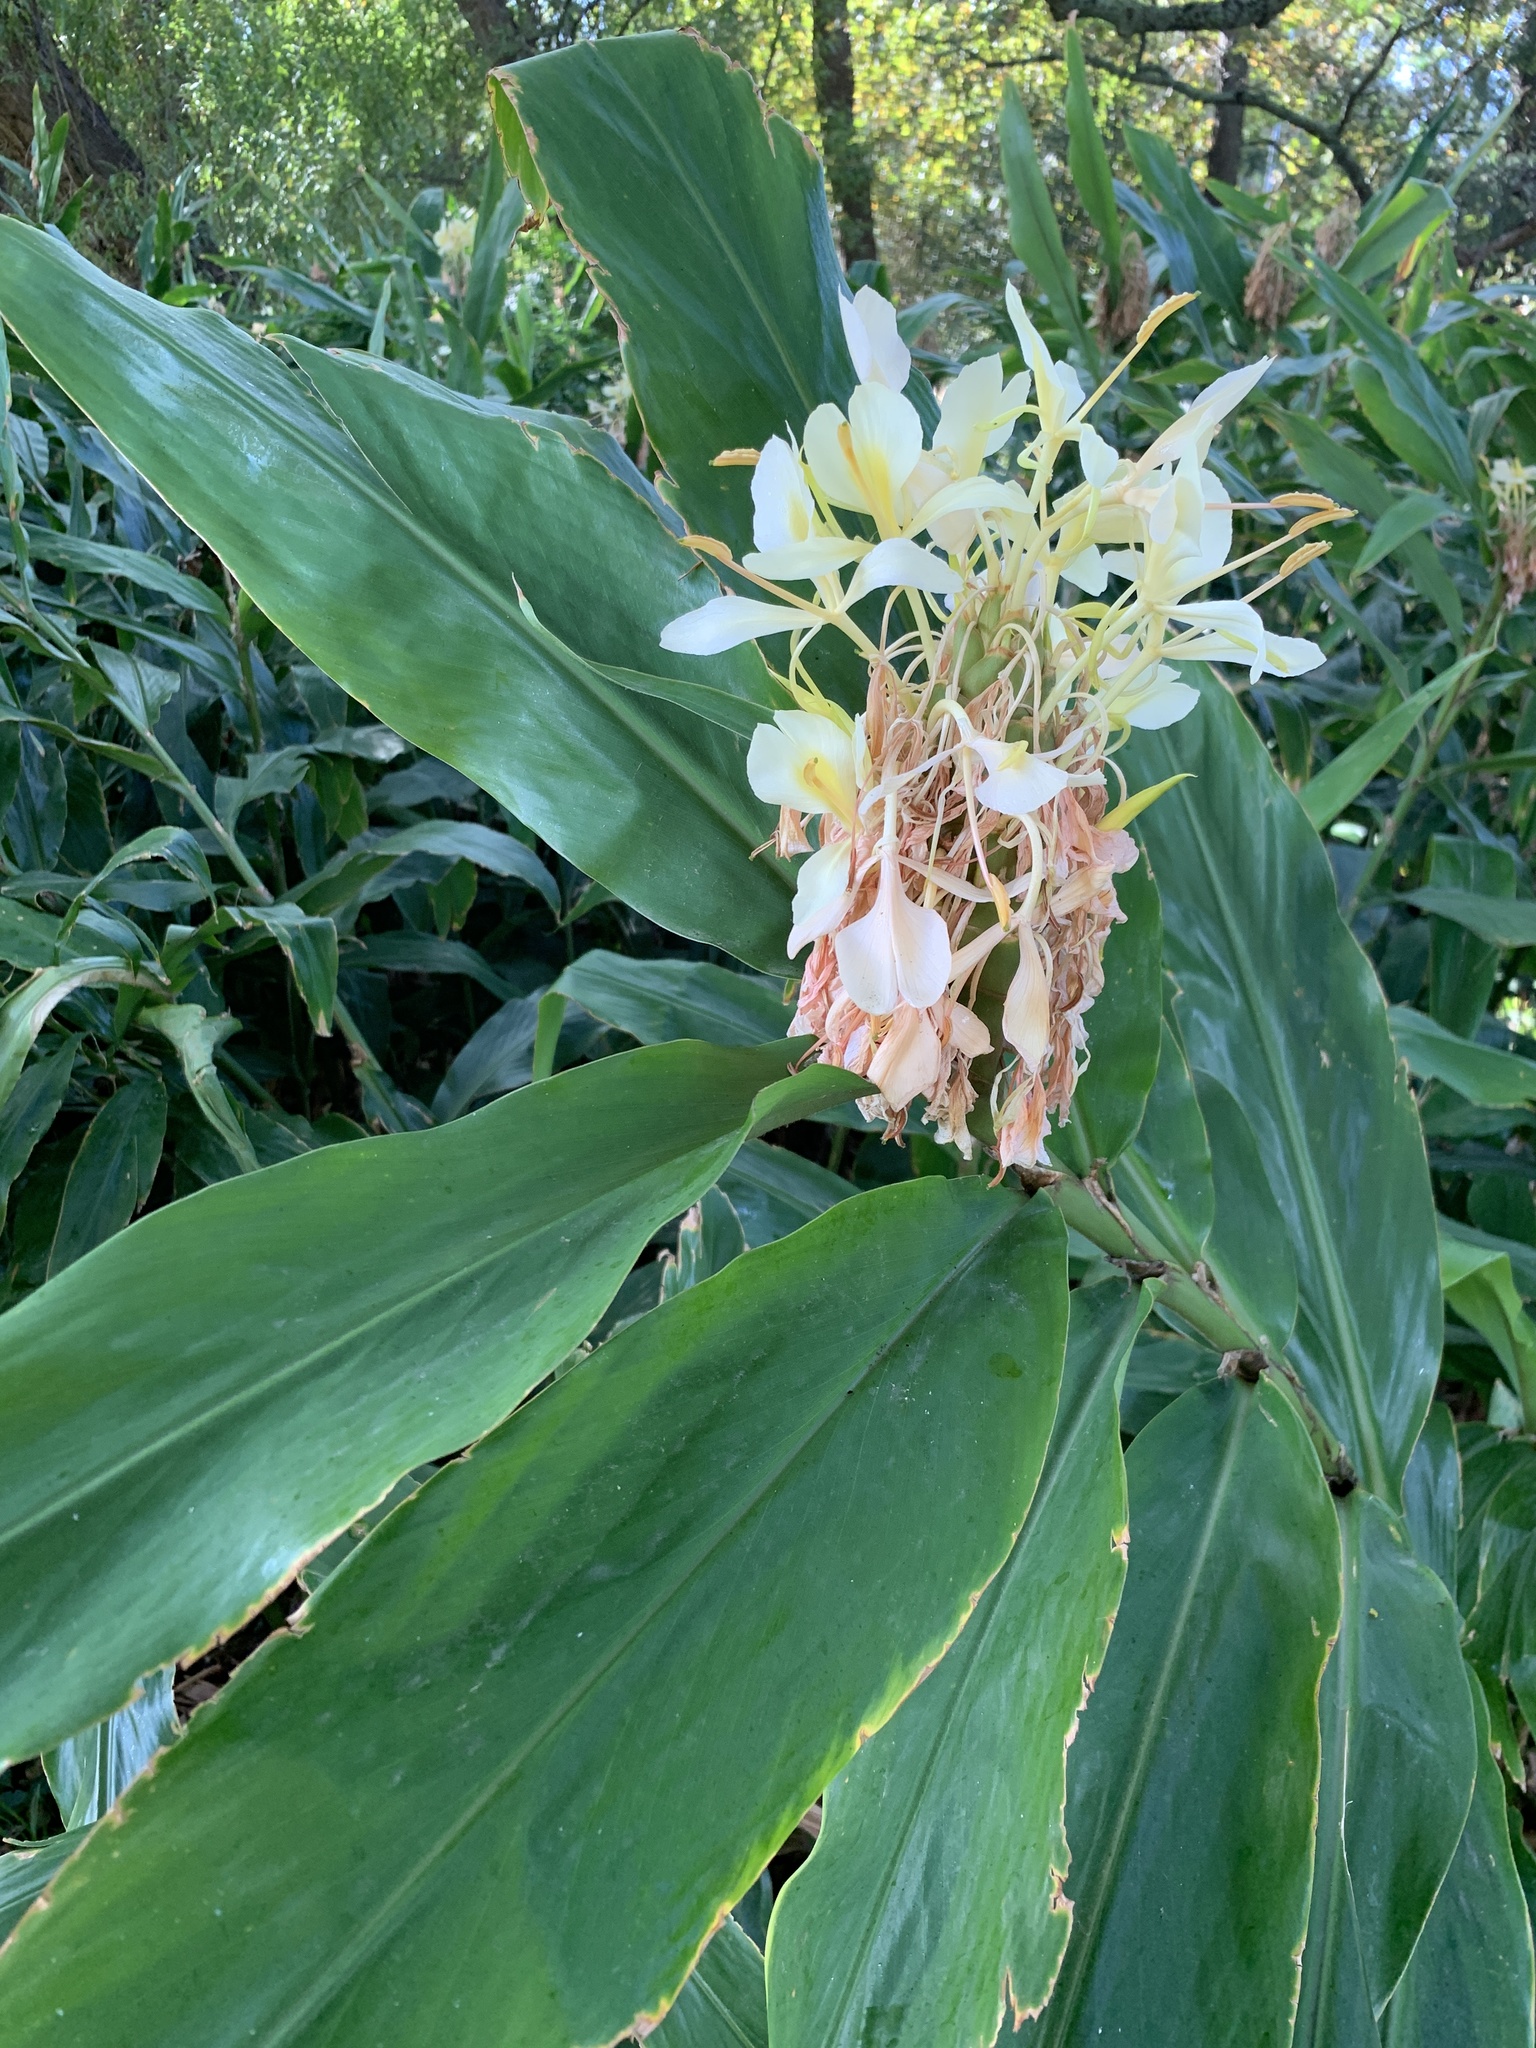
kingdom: Plantae
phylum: Tracheophyta
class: Liliopsida
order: Zingiberales
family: Zingiberaceae
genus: Hedychium
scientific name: Hedychium flavescens
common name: Yellow ginger
